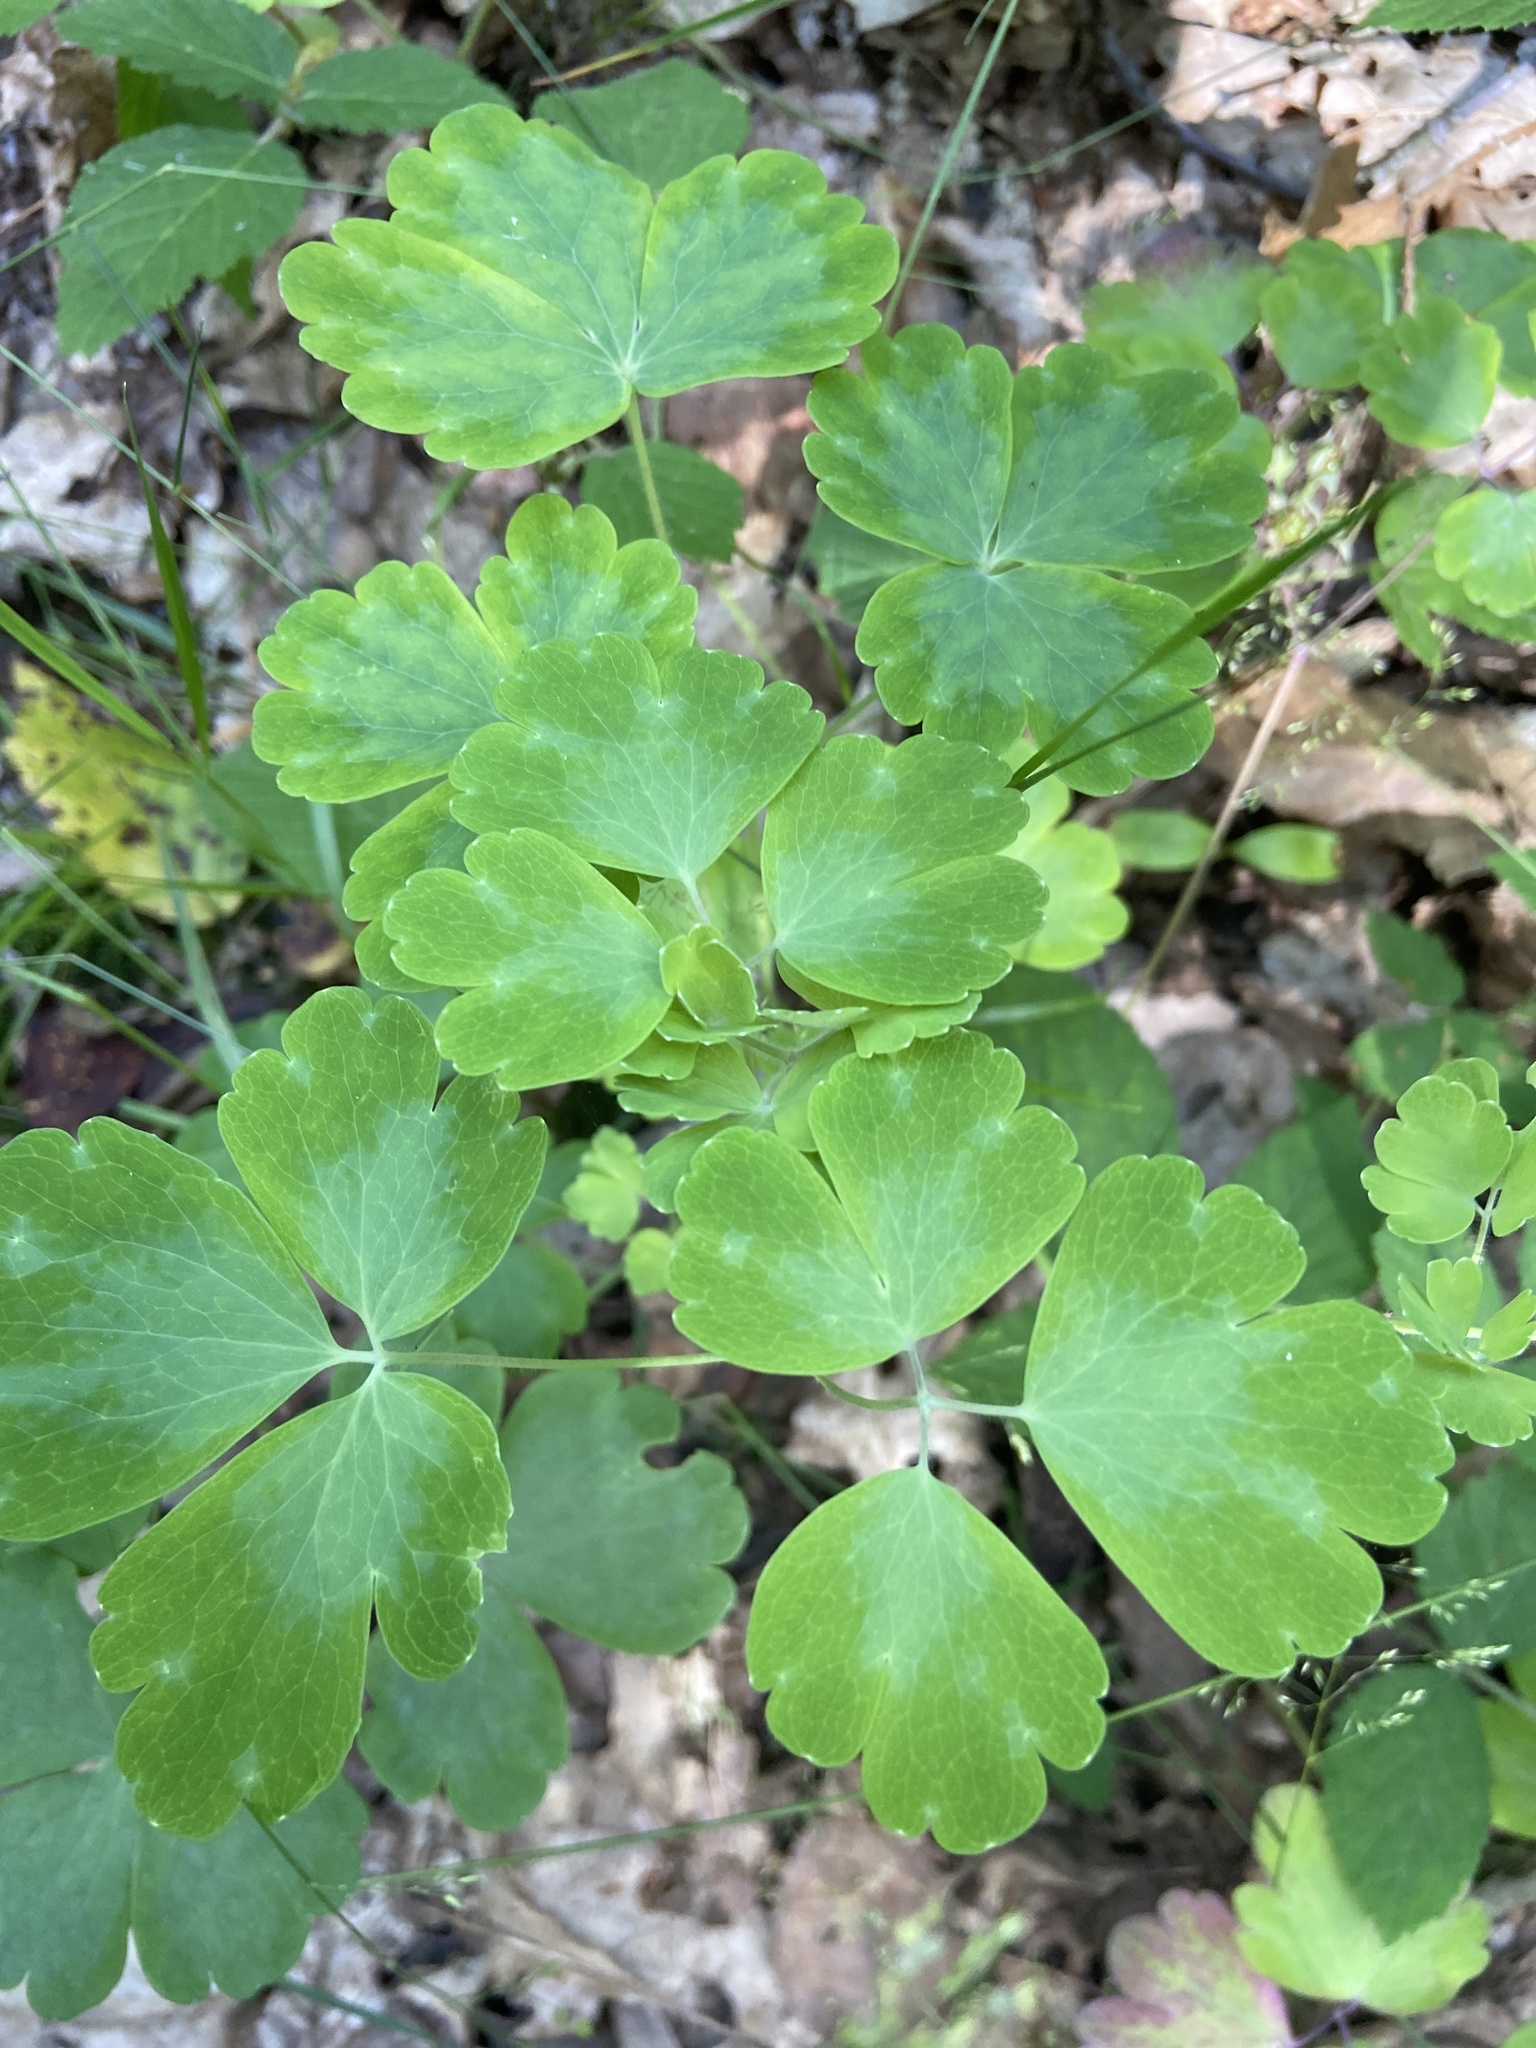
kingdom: Plantae
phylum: Tracheophyta
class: Magnoliopsida
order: Ranunculales
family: Ranunculaceae
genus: Aquilegia
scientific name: Aquilegia vulgaris
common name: Columbine
